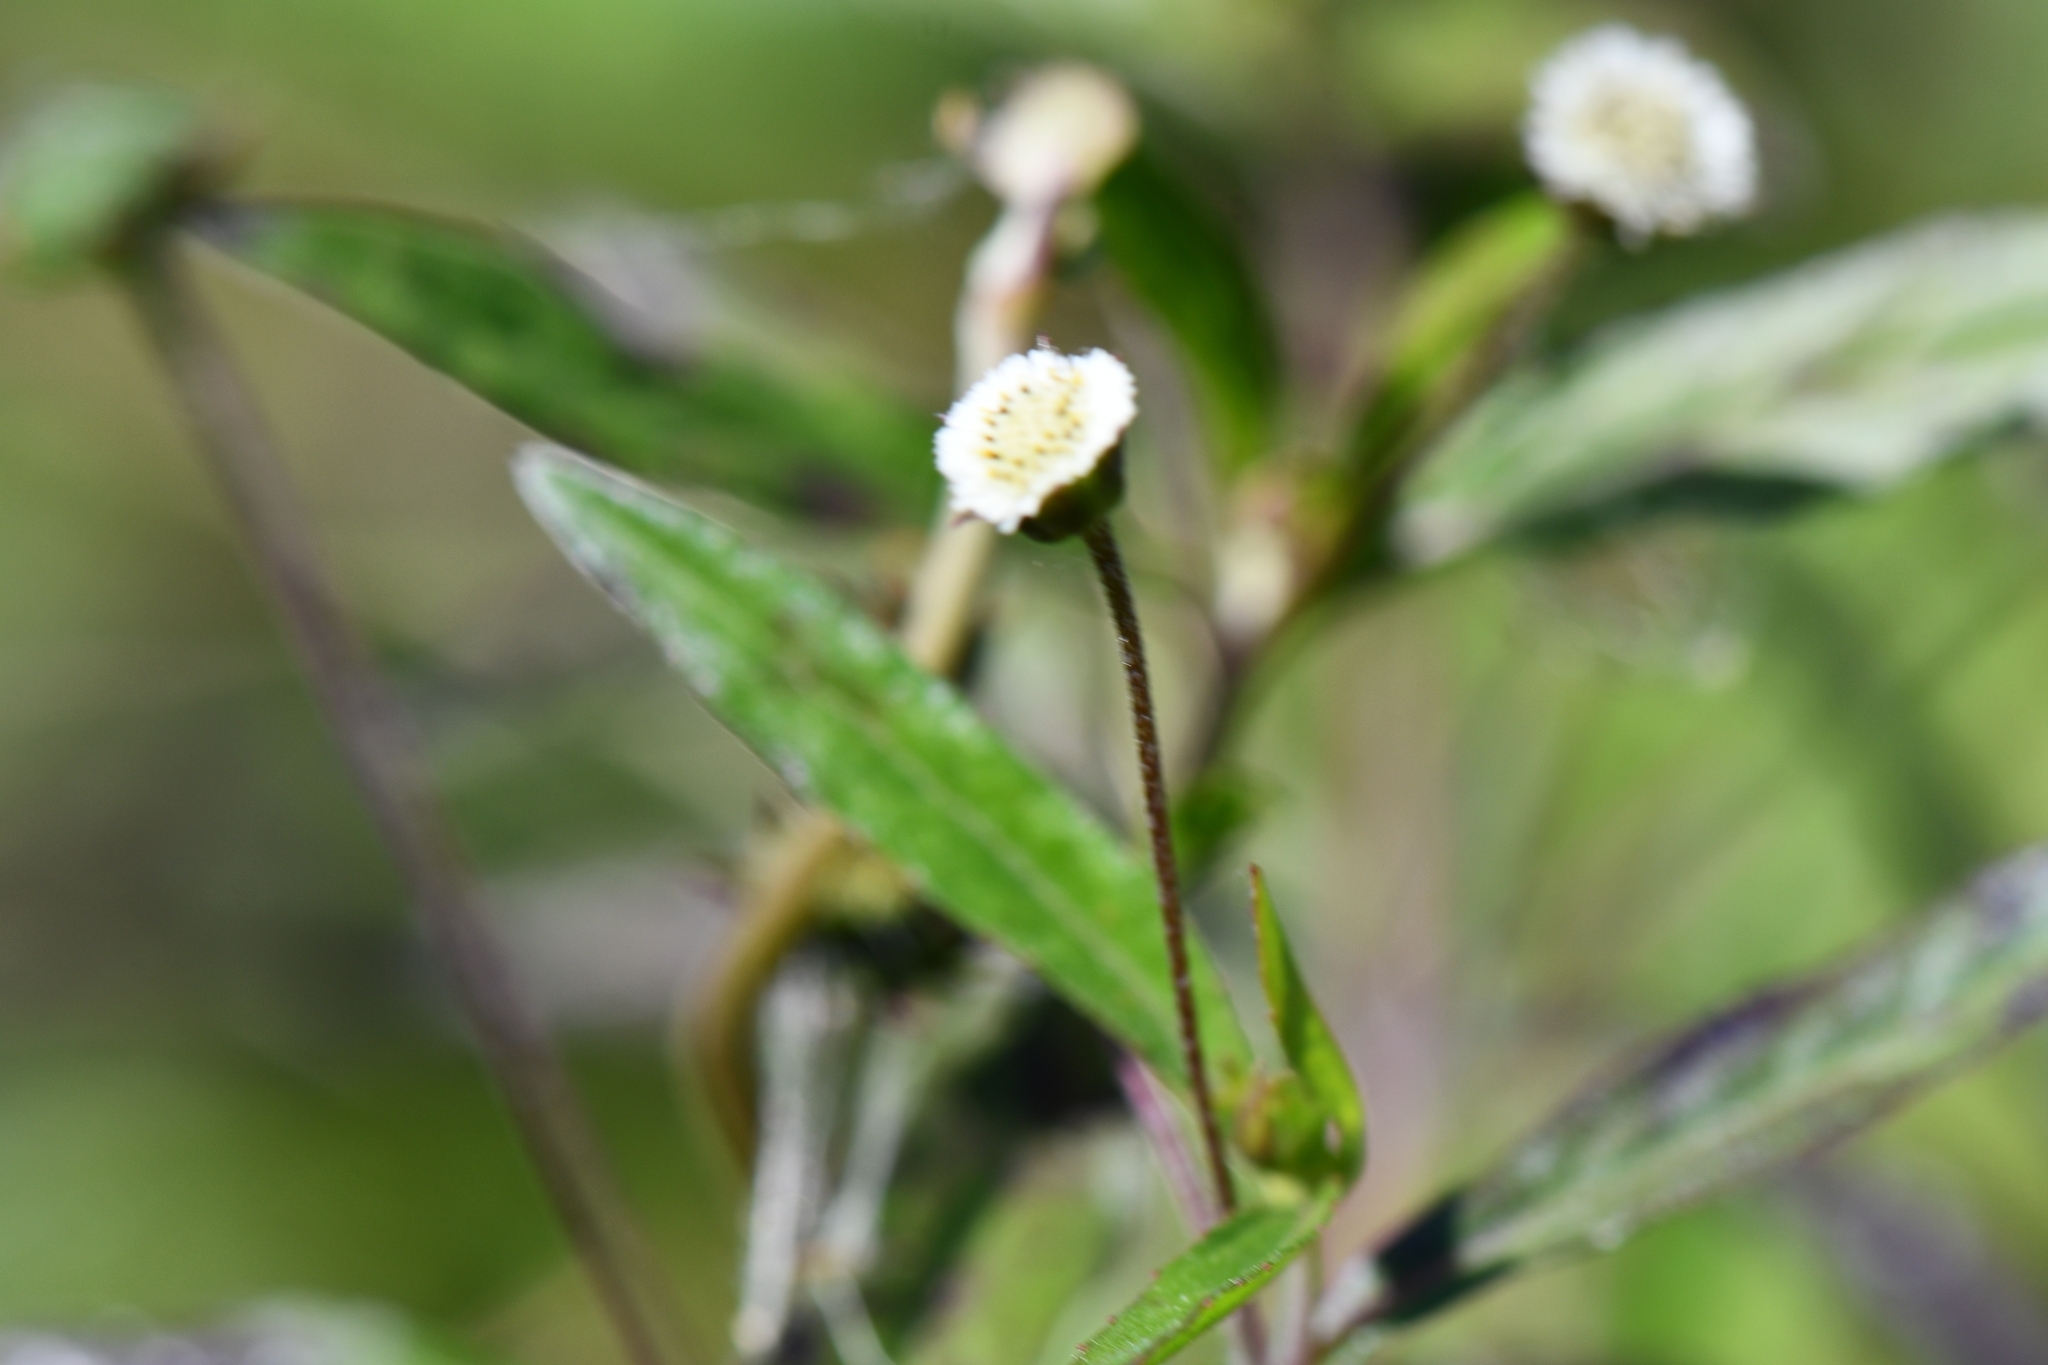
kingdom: Plantae
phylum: Tracheophyta
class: Magnoliopsida
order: Asterales
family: Asteraceae
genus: Eclipta
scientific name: Eclipta prostrata
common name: False daisy
